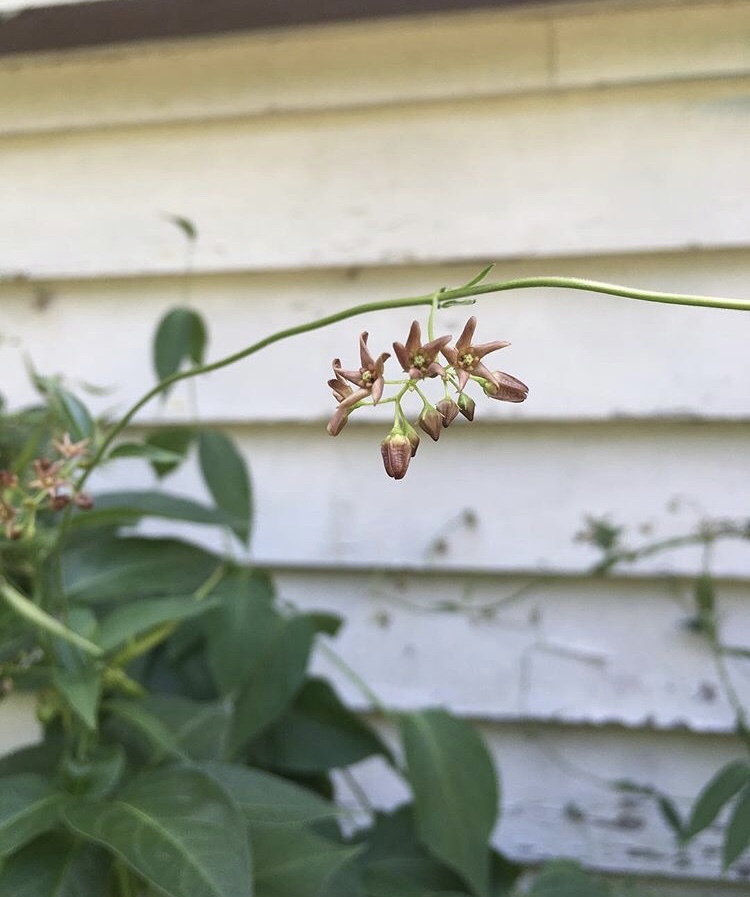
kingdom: Plantae
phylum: Tracheophyta
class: Magnoliopsida
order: Gentianales
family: Apocynaceae
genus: Vincetoxicum
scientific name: Vincetoxicum rossicum
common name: Dog-strangling vine
